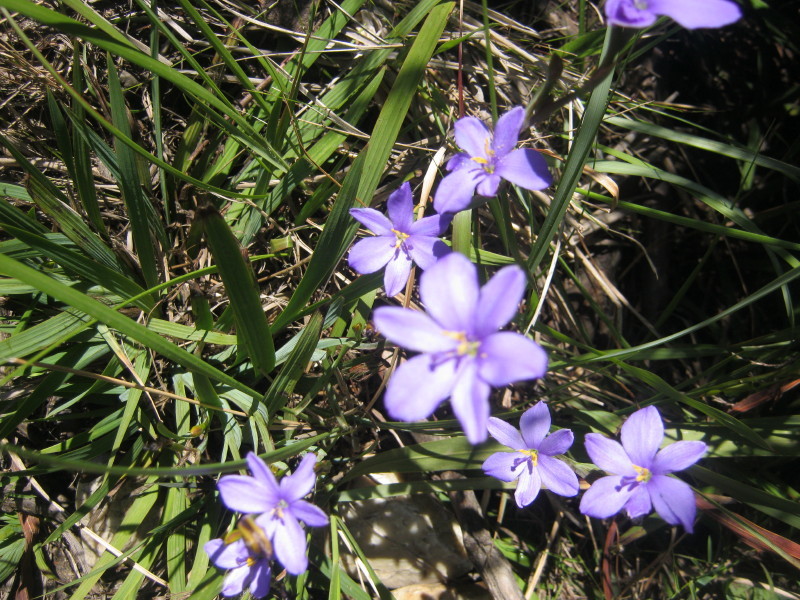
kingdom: Plantae
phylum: Tracheophyta
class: Liliopsida
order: Asparagales
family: Iridaceae
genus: Aristea
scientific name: Aristea ensifolia
